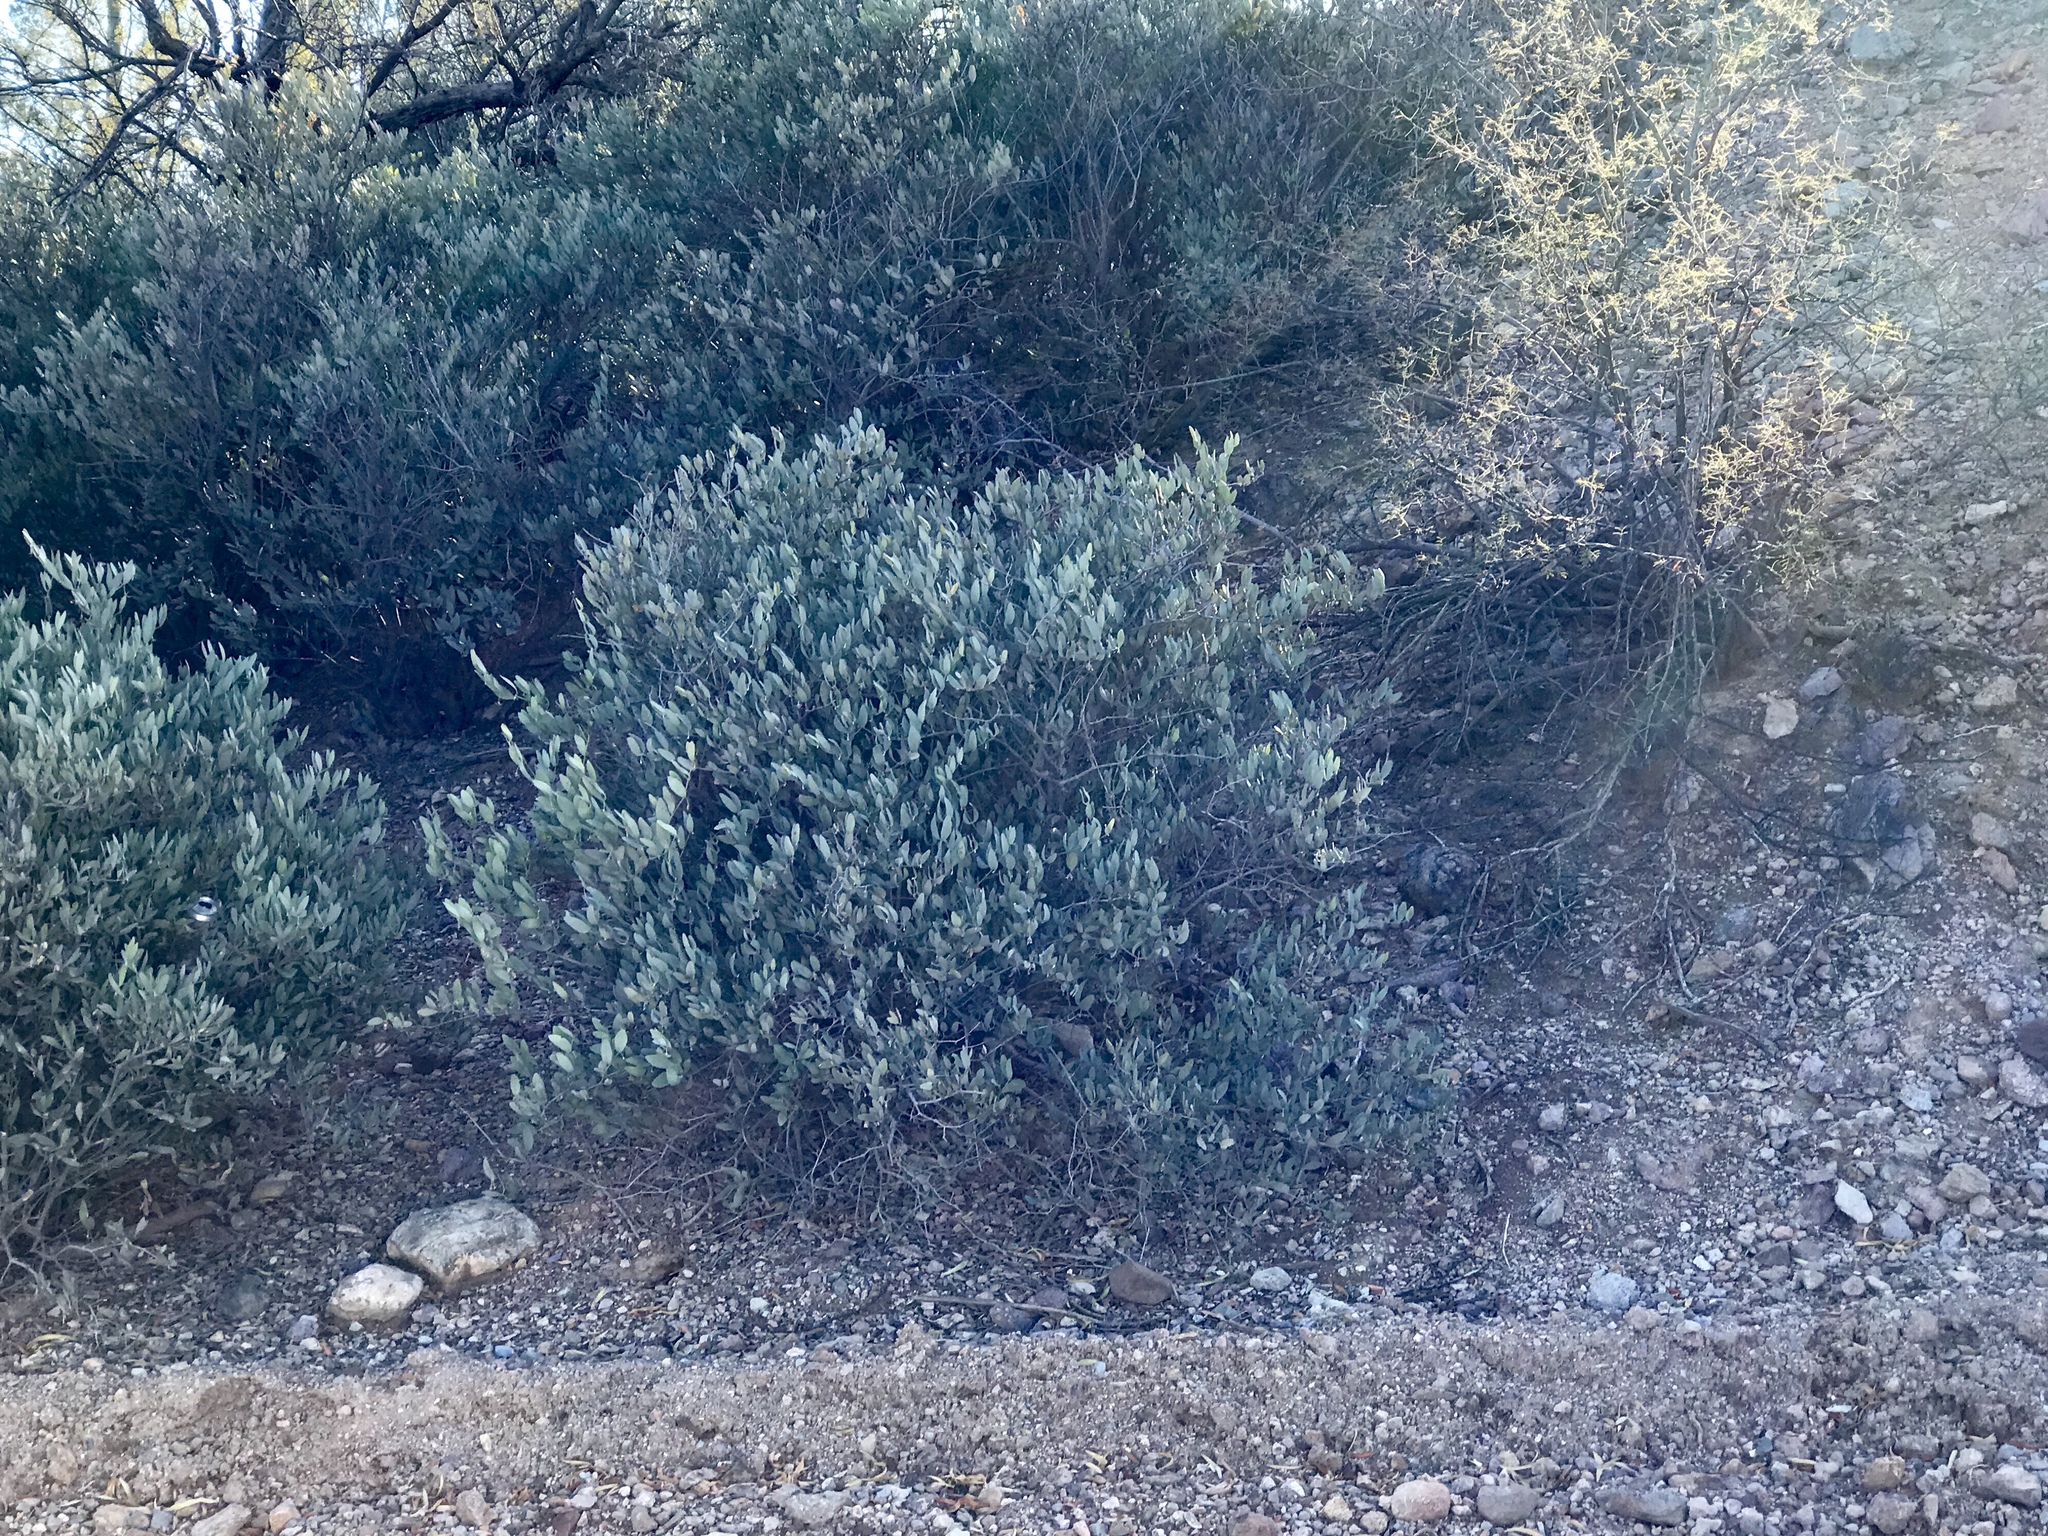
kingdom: Plantae
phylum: Tracheophyta
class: Magnoliopsida
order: Caryophyllales
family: Simmondsiaceae
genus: Simmondsia
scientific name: Simmondsia chinensis
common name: Jojoba
